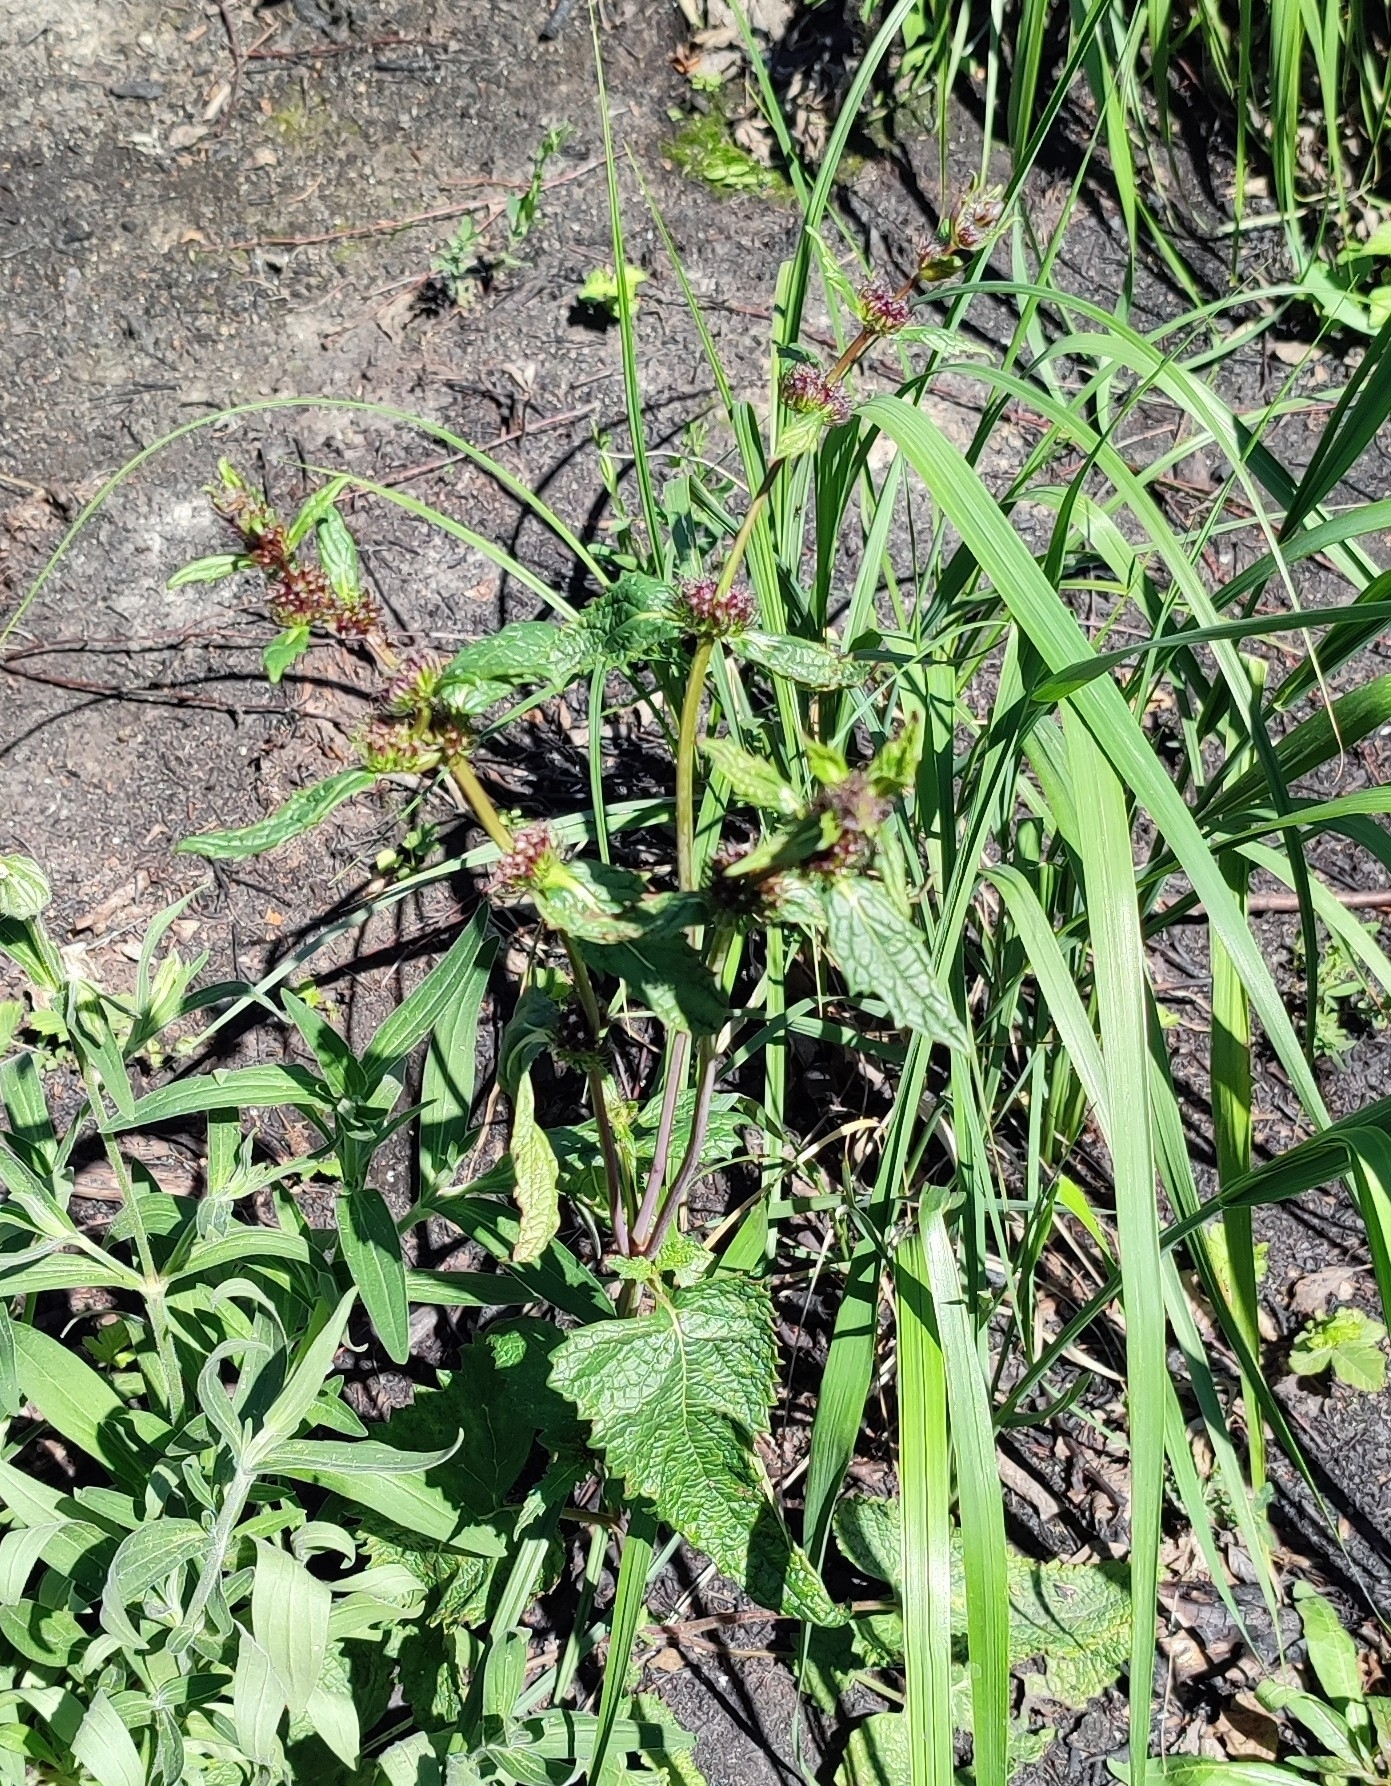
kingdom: Plantae
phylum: Tracheophyta
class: Magnoliopsida
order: Lamiales
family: Lamiaceae
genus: Phlomoides
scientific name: Phlomoides tuberosa
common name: Tuberous jerusalem sage
